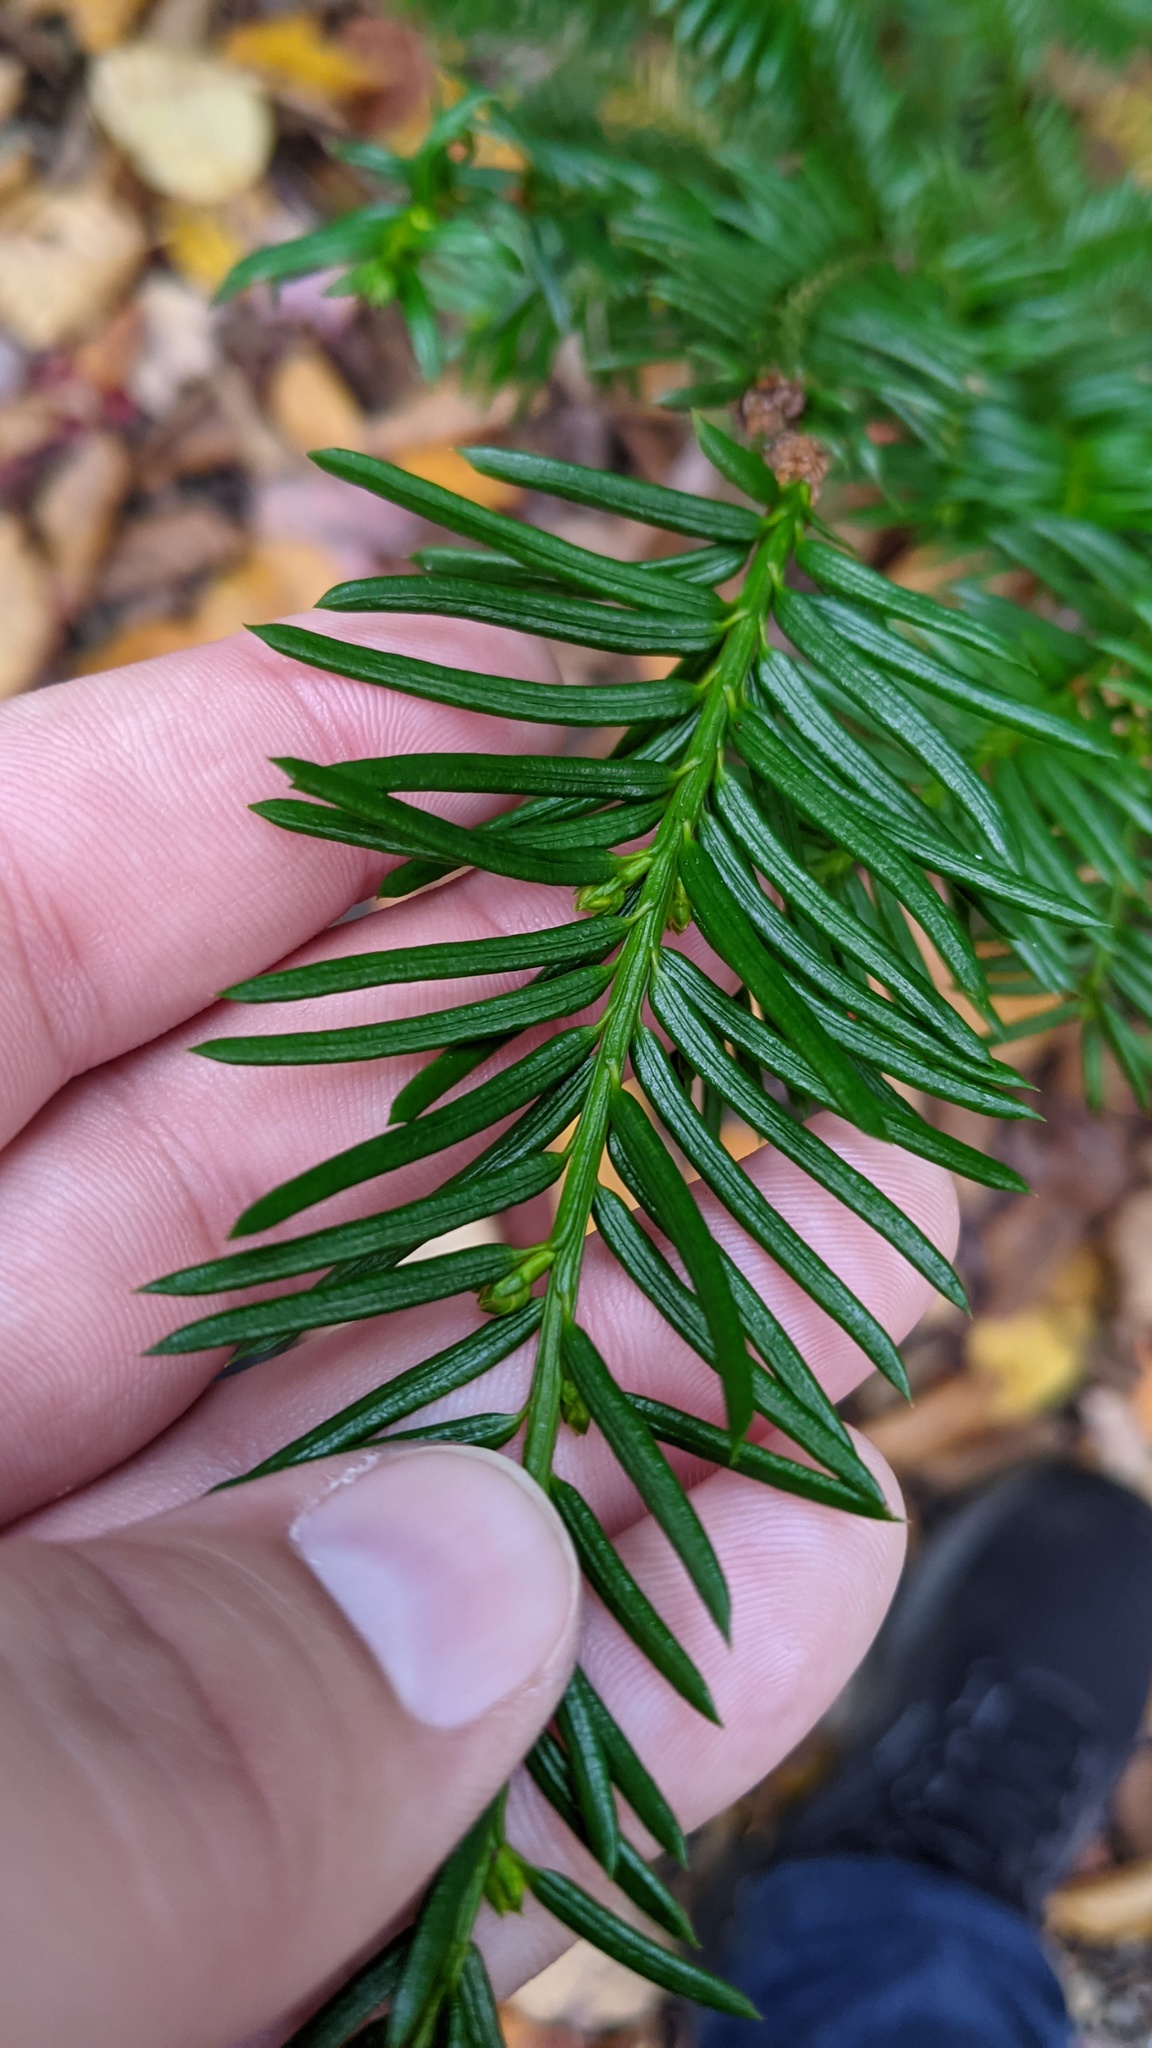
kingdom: Plantae
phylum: Tracheophyta
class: Pinopsida
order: Pinales
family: Taxaceae
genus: Taxus
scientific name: Taxus canadensis
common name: American yew
